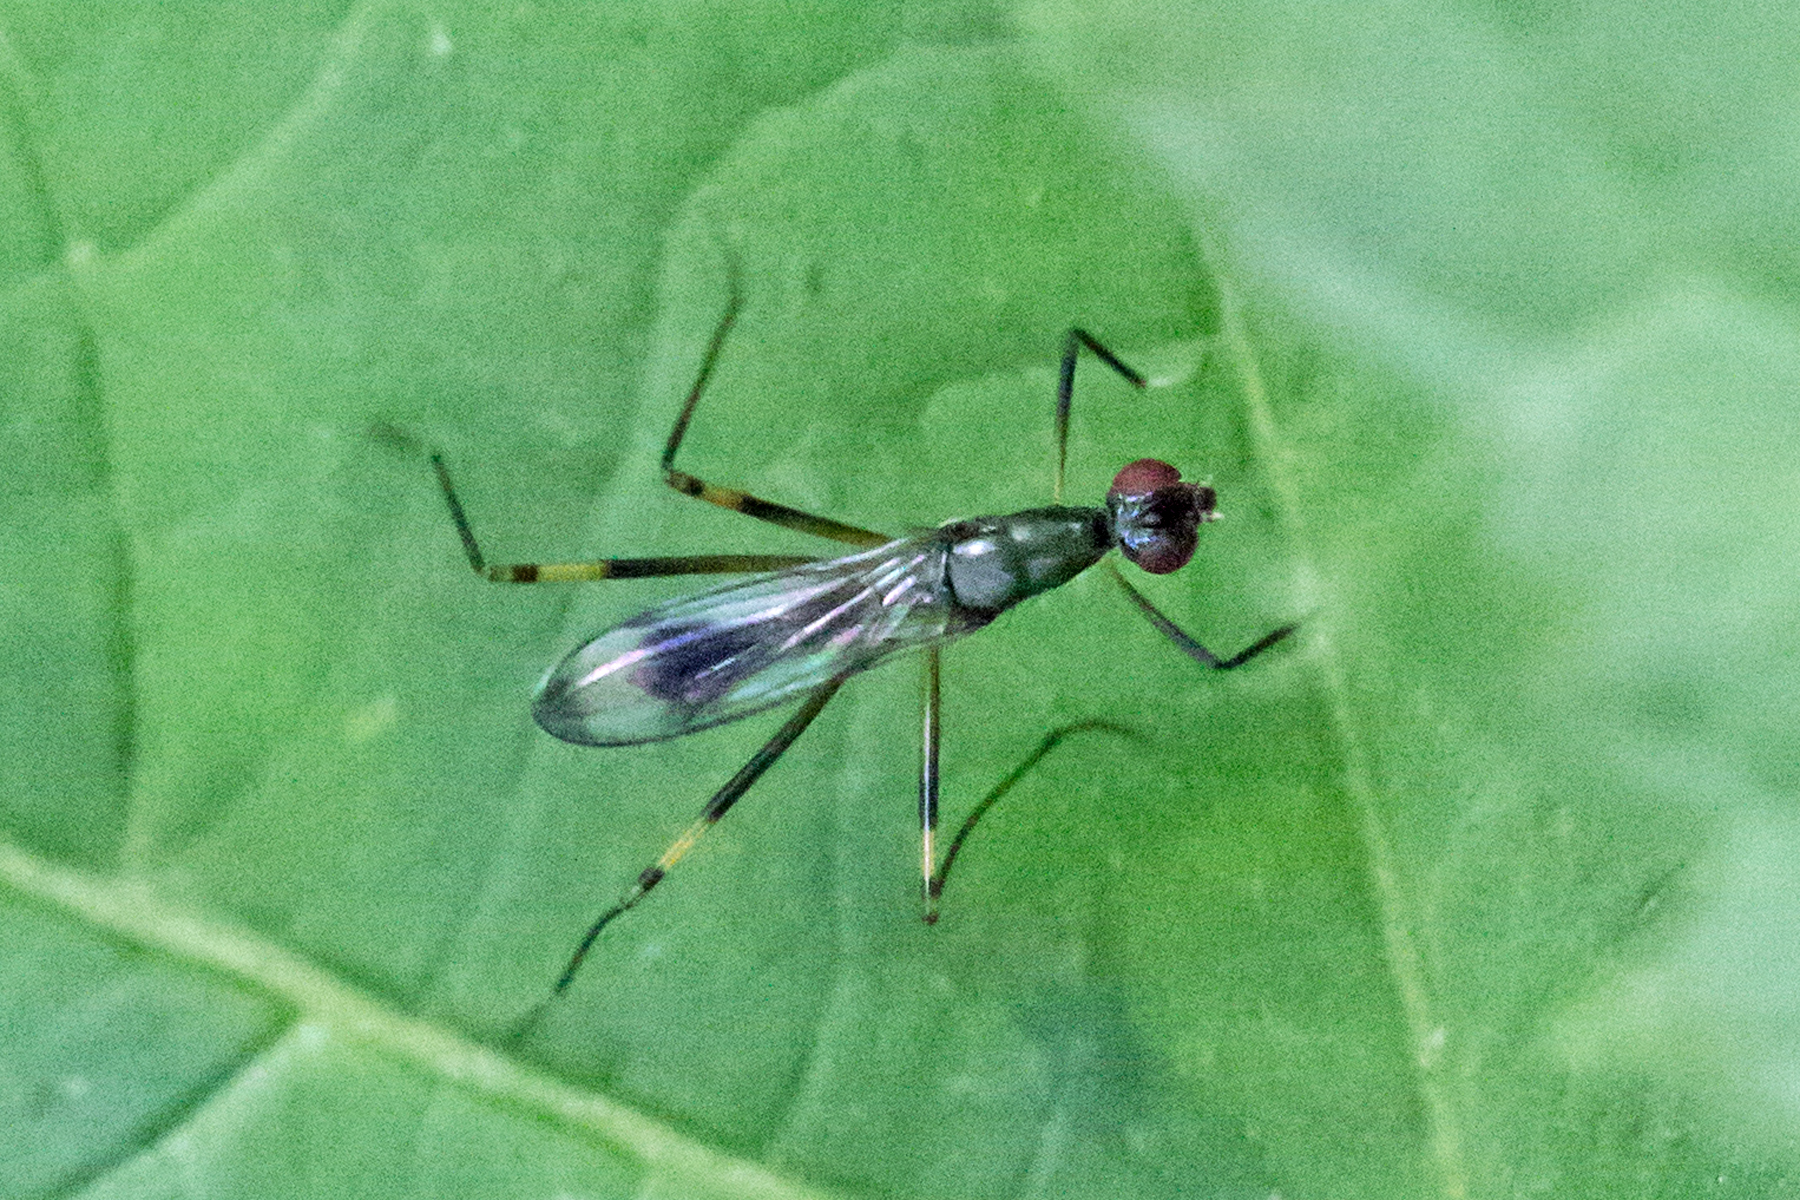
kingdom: Animalia
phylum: Arthropoda
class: Insecta
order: Diptera
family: Micropezidae
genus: Rainieria
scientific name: Rainieria antennaepes
